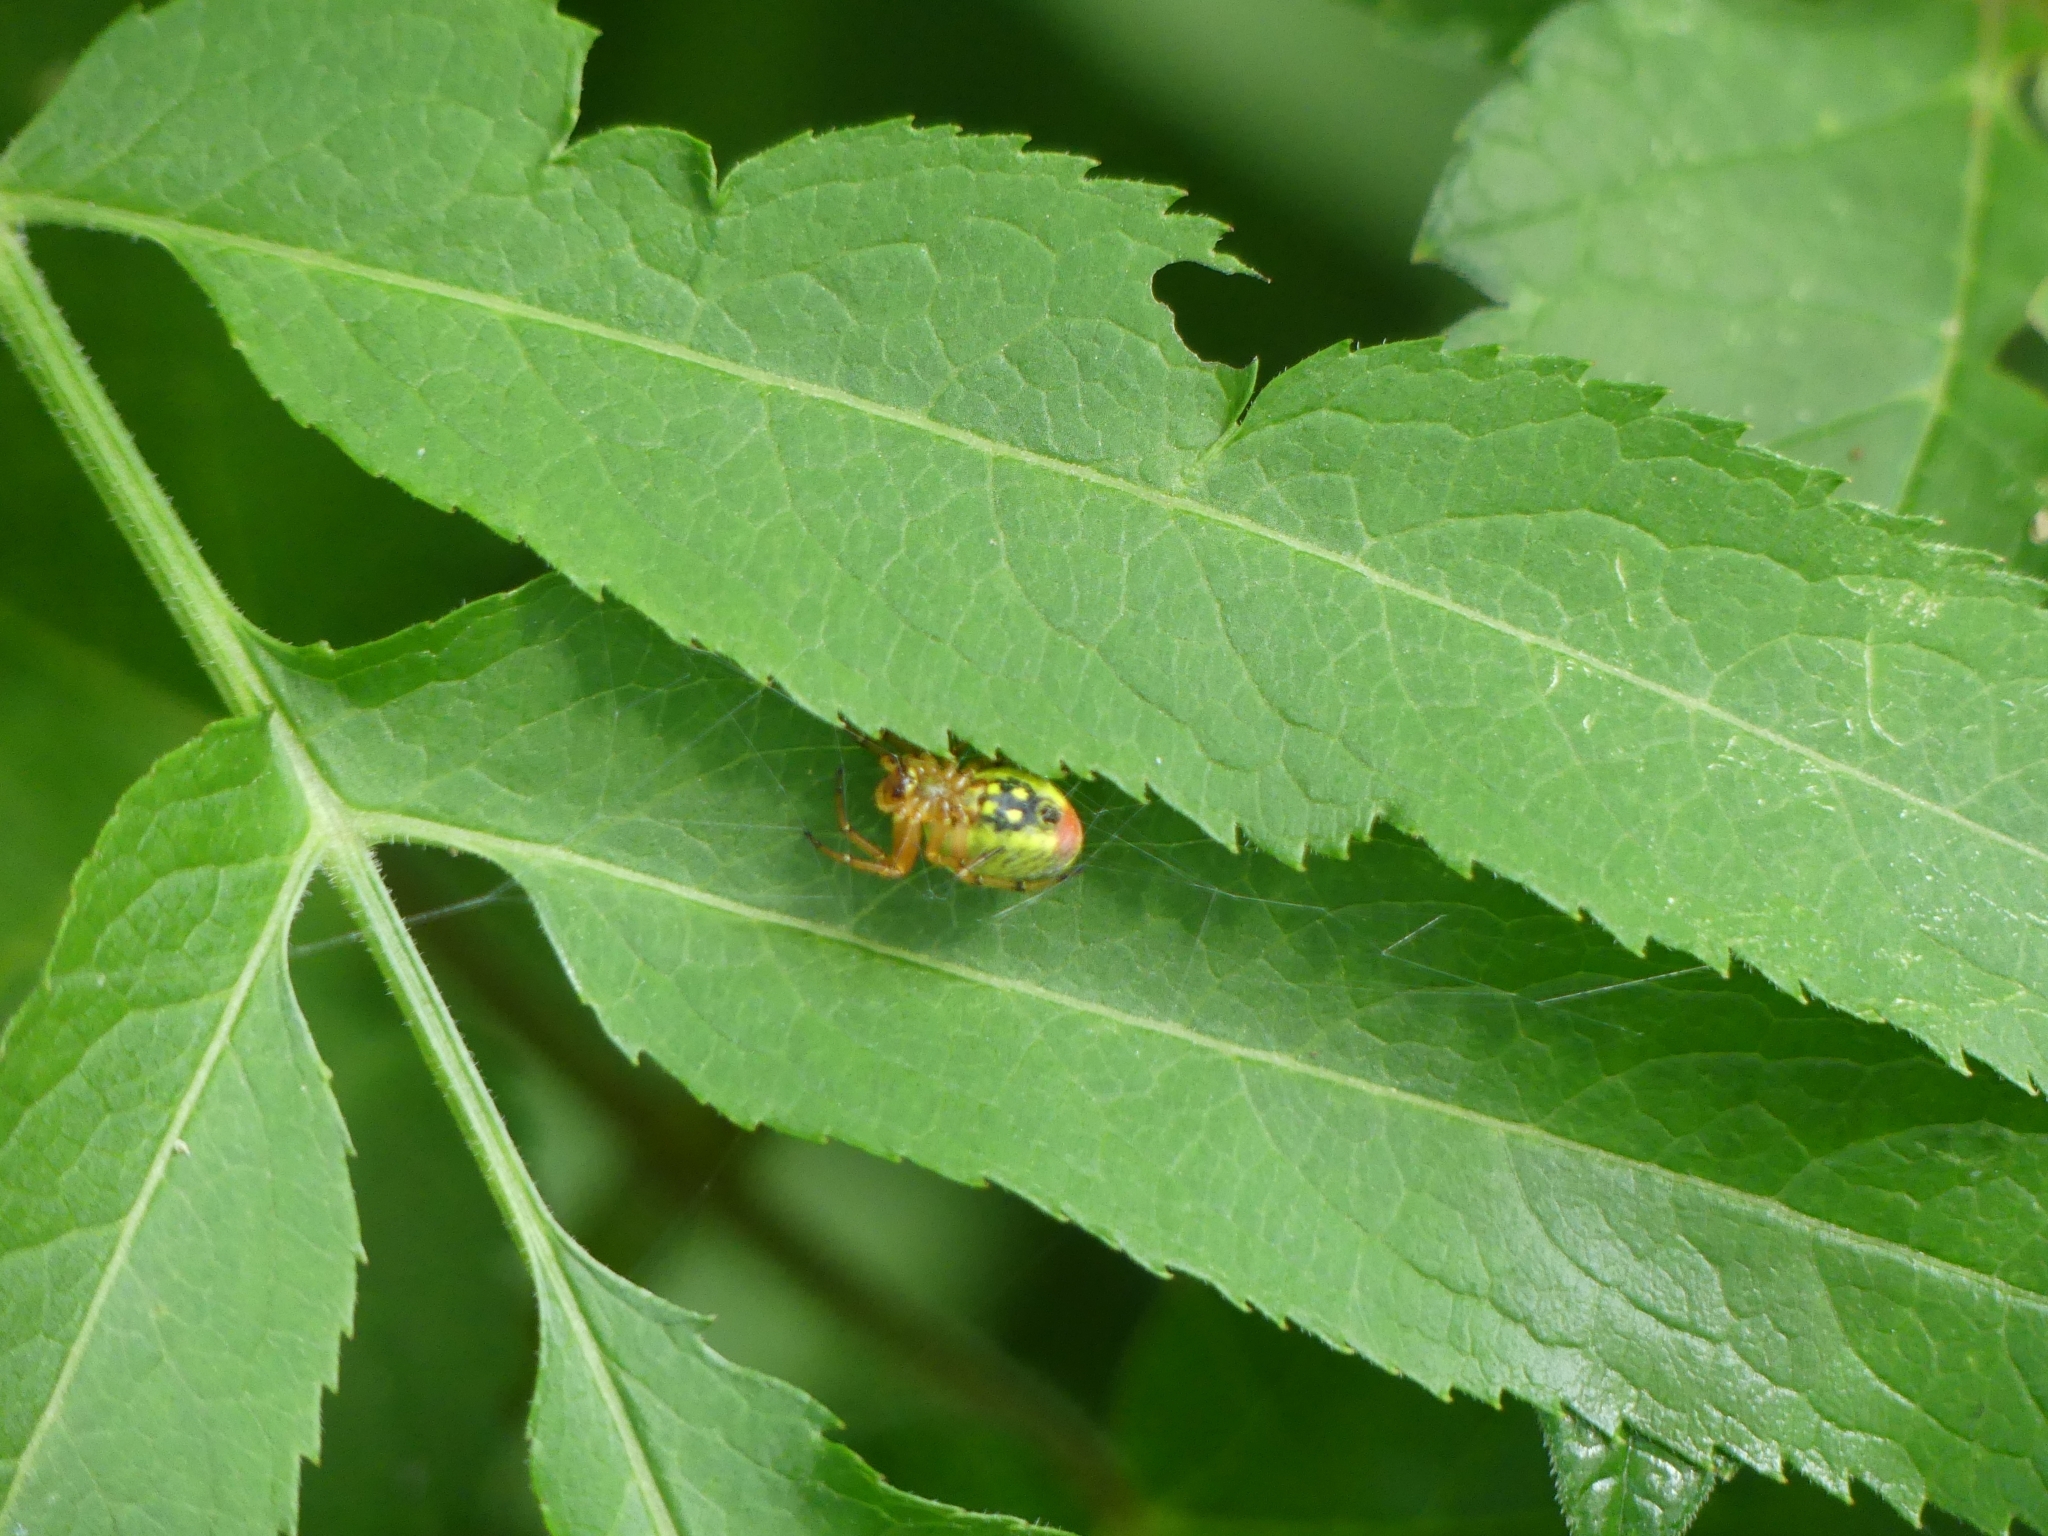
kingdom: Animalia
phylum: Arthropoda
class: Arachnida
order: Araneae
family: Araneidae
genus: Araniella
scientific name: Araniella alpica
